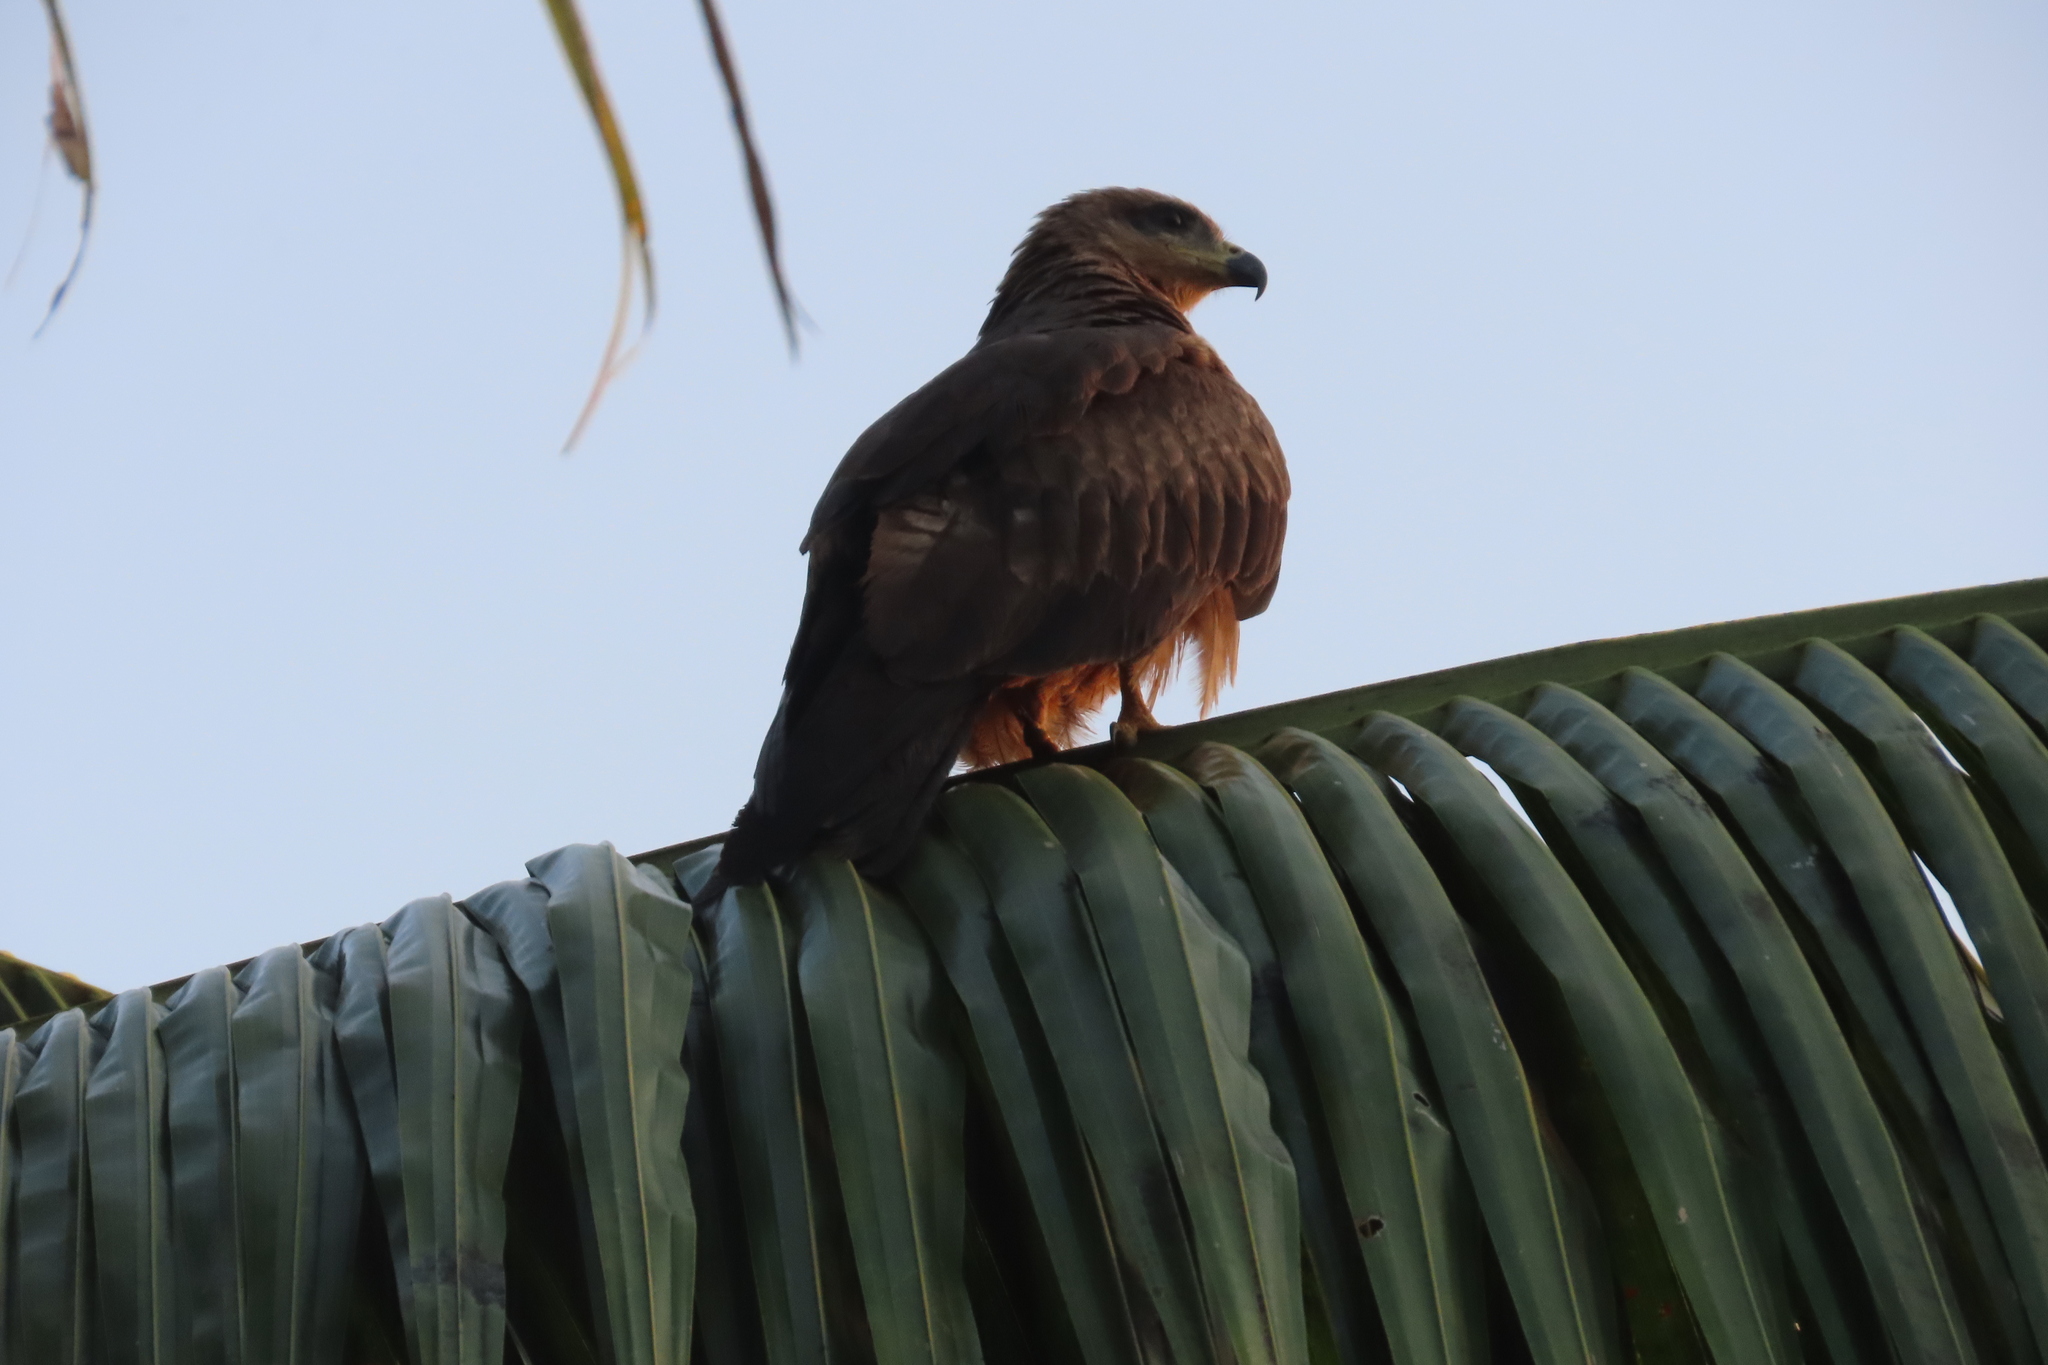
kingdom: Animalia
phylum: Chordata
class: Aves
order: Accipitriformes
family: Accipitridae
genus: Milvus
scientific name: Milvus migrans
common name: Black kite
